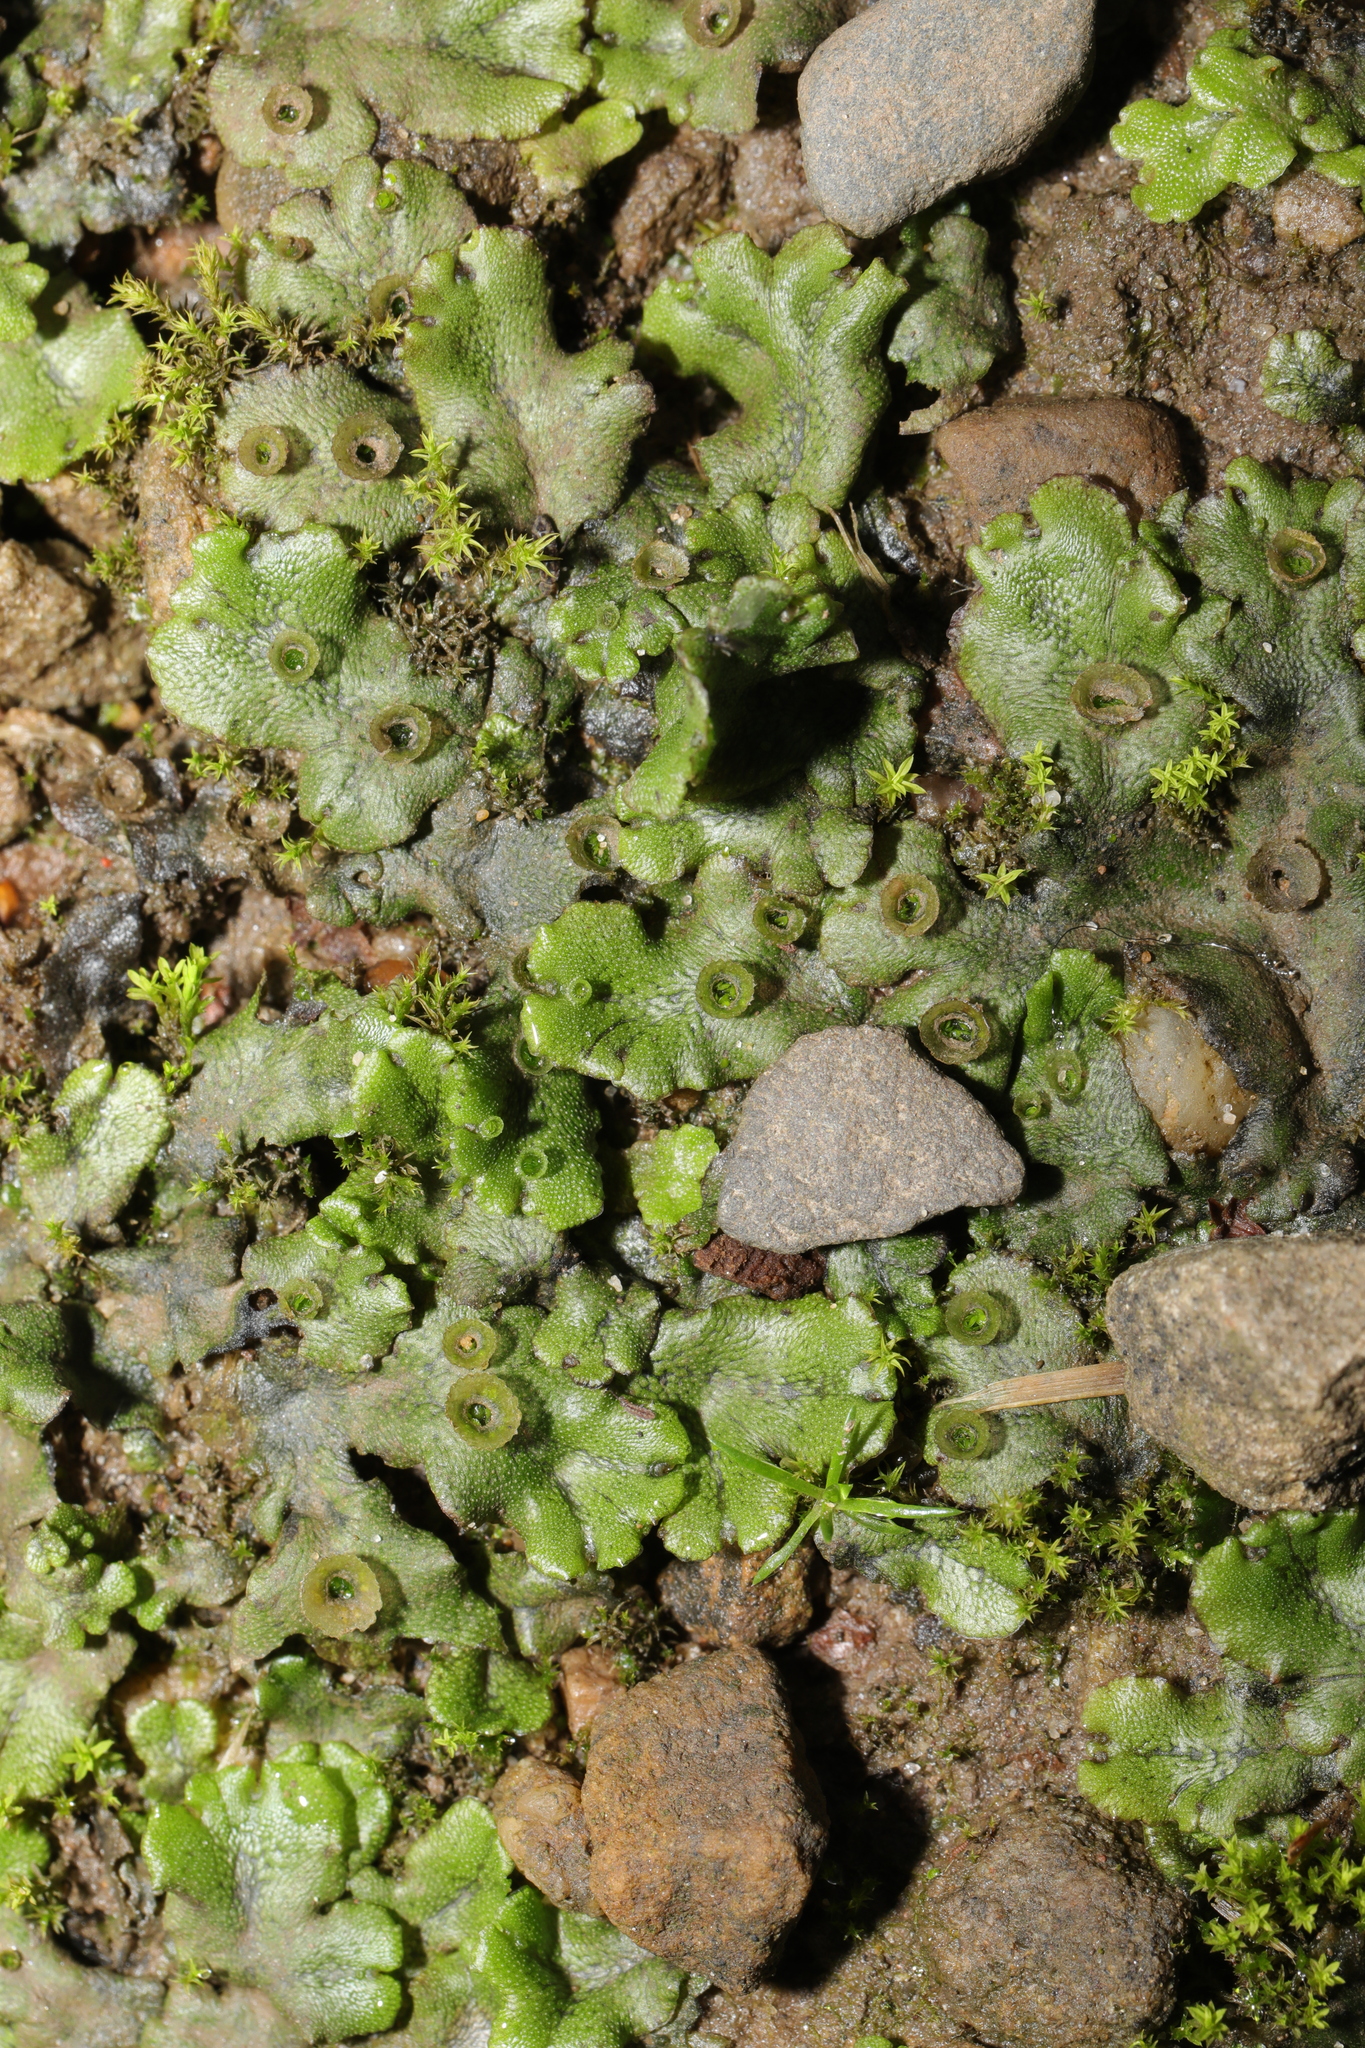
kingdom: Plantae
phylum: Marchantiophyta
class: Marchantiopsida
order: Marchantiales
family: Marchantiaceae
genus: Marchantia
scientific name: Marchantia polymorpha
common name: Common liverwort
